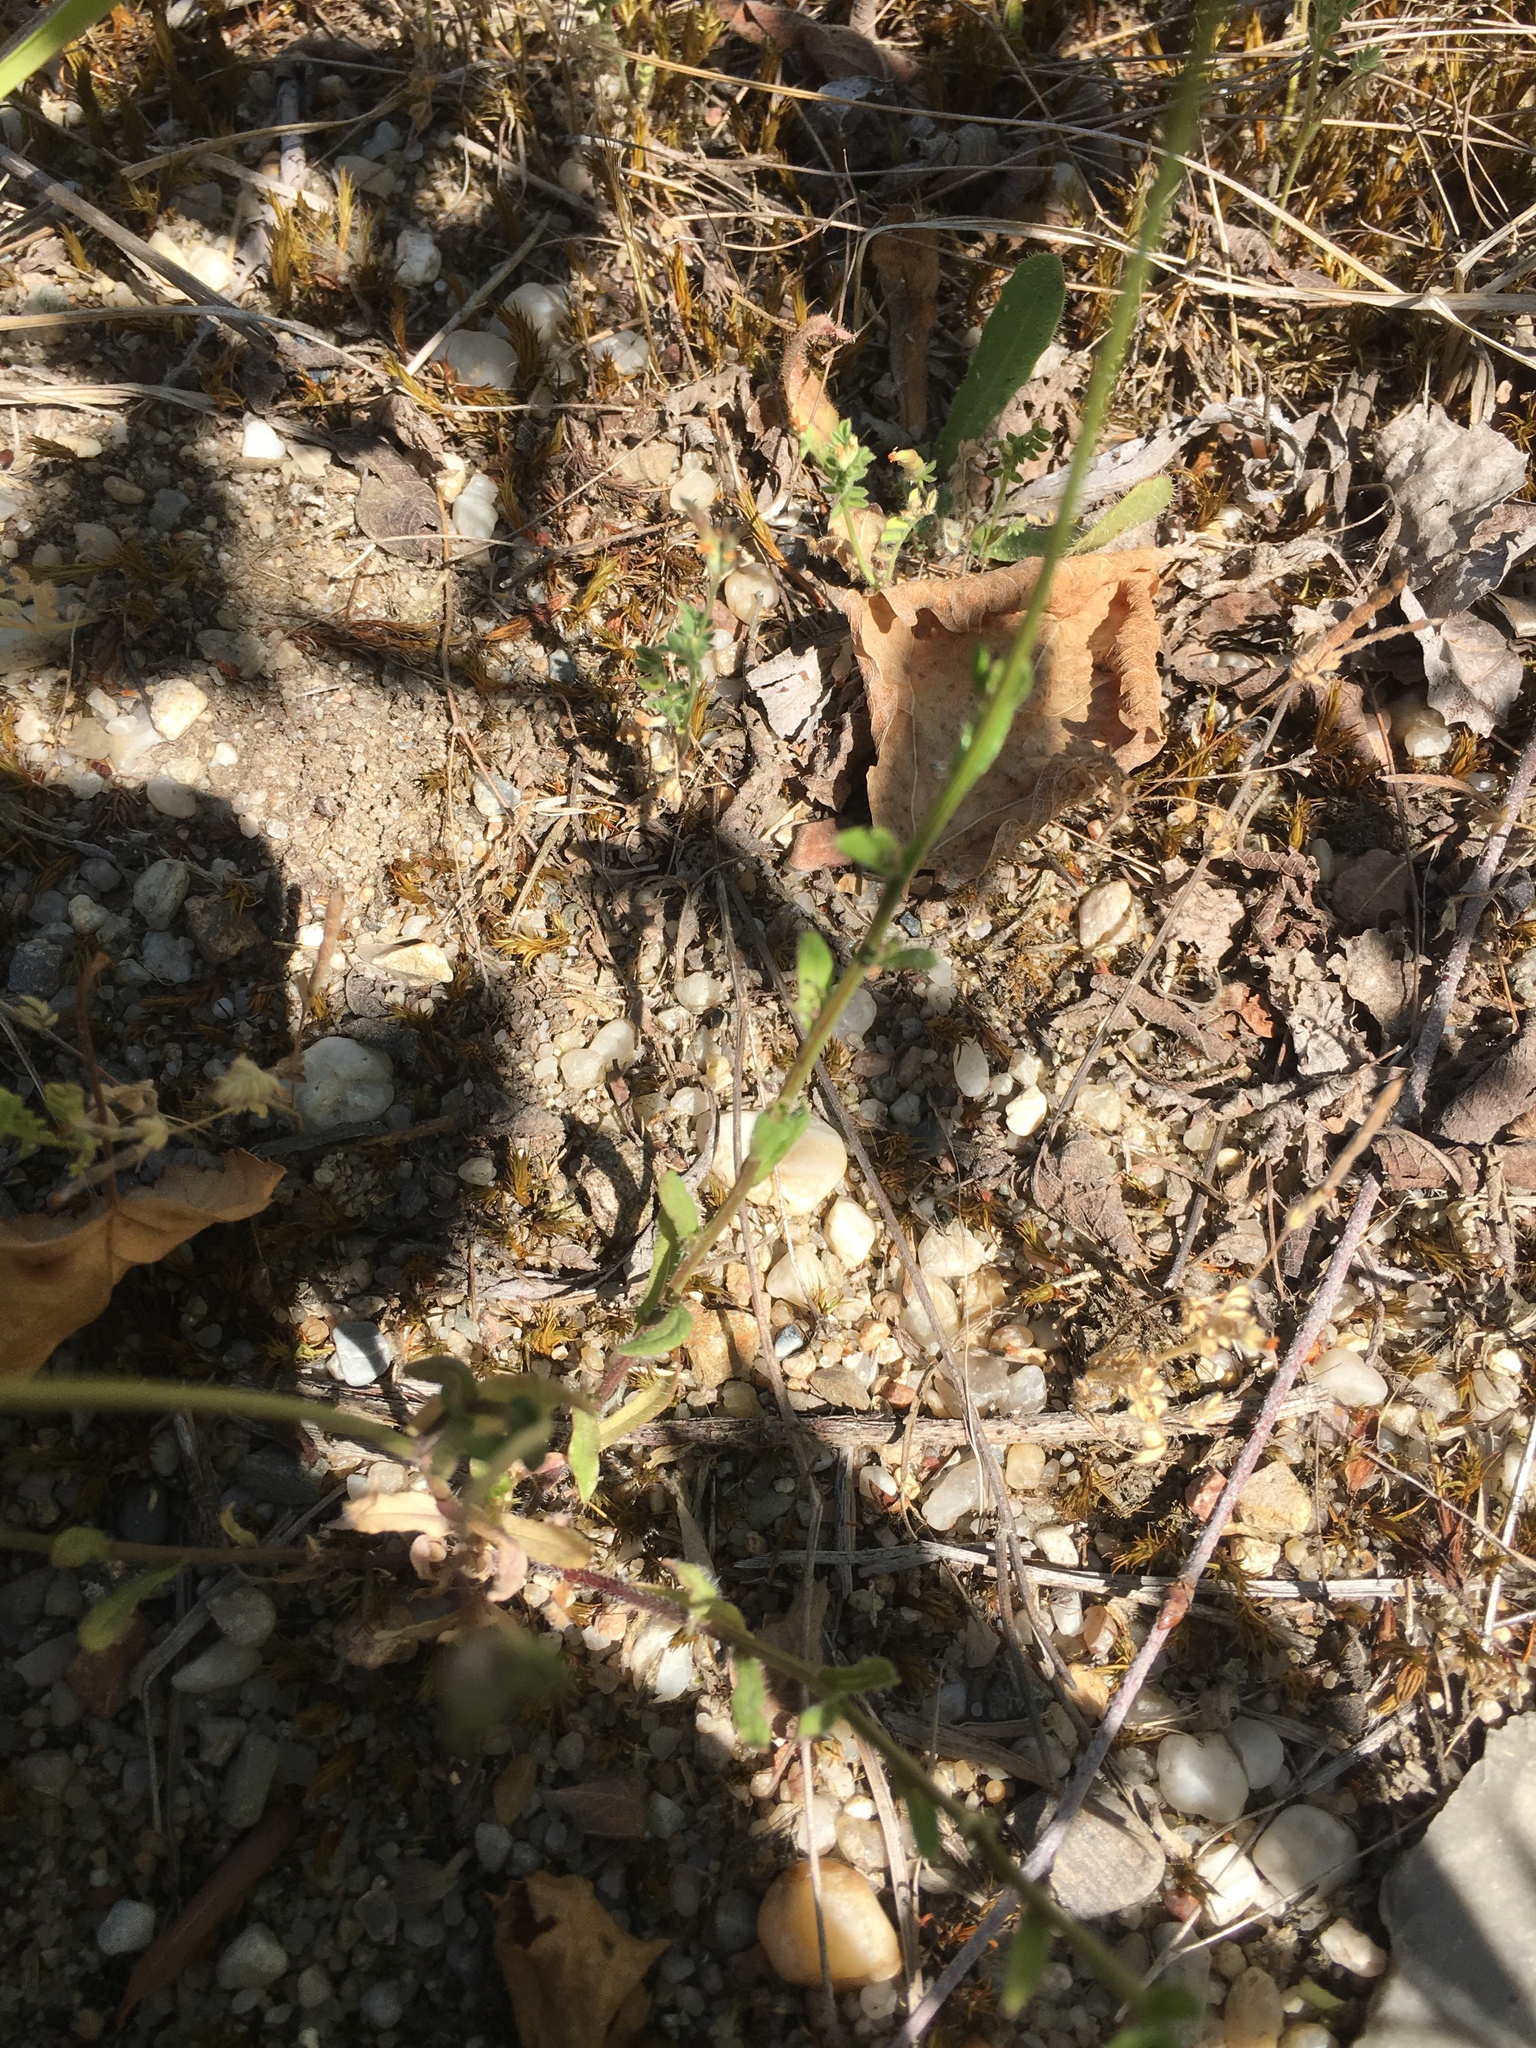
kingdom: Plantae
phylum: Tracheophyta
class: Magnoliopsida
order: Asterales
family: Campanulaceae
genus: Jasione
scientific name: Jasione montana
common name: Sheep's-bit
